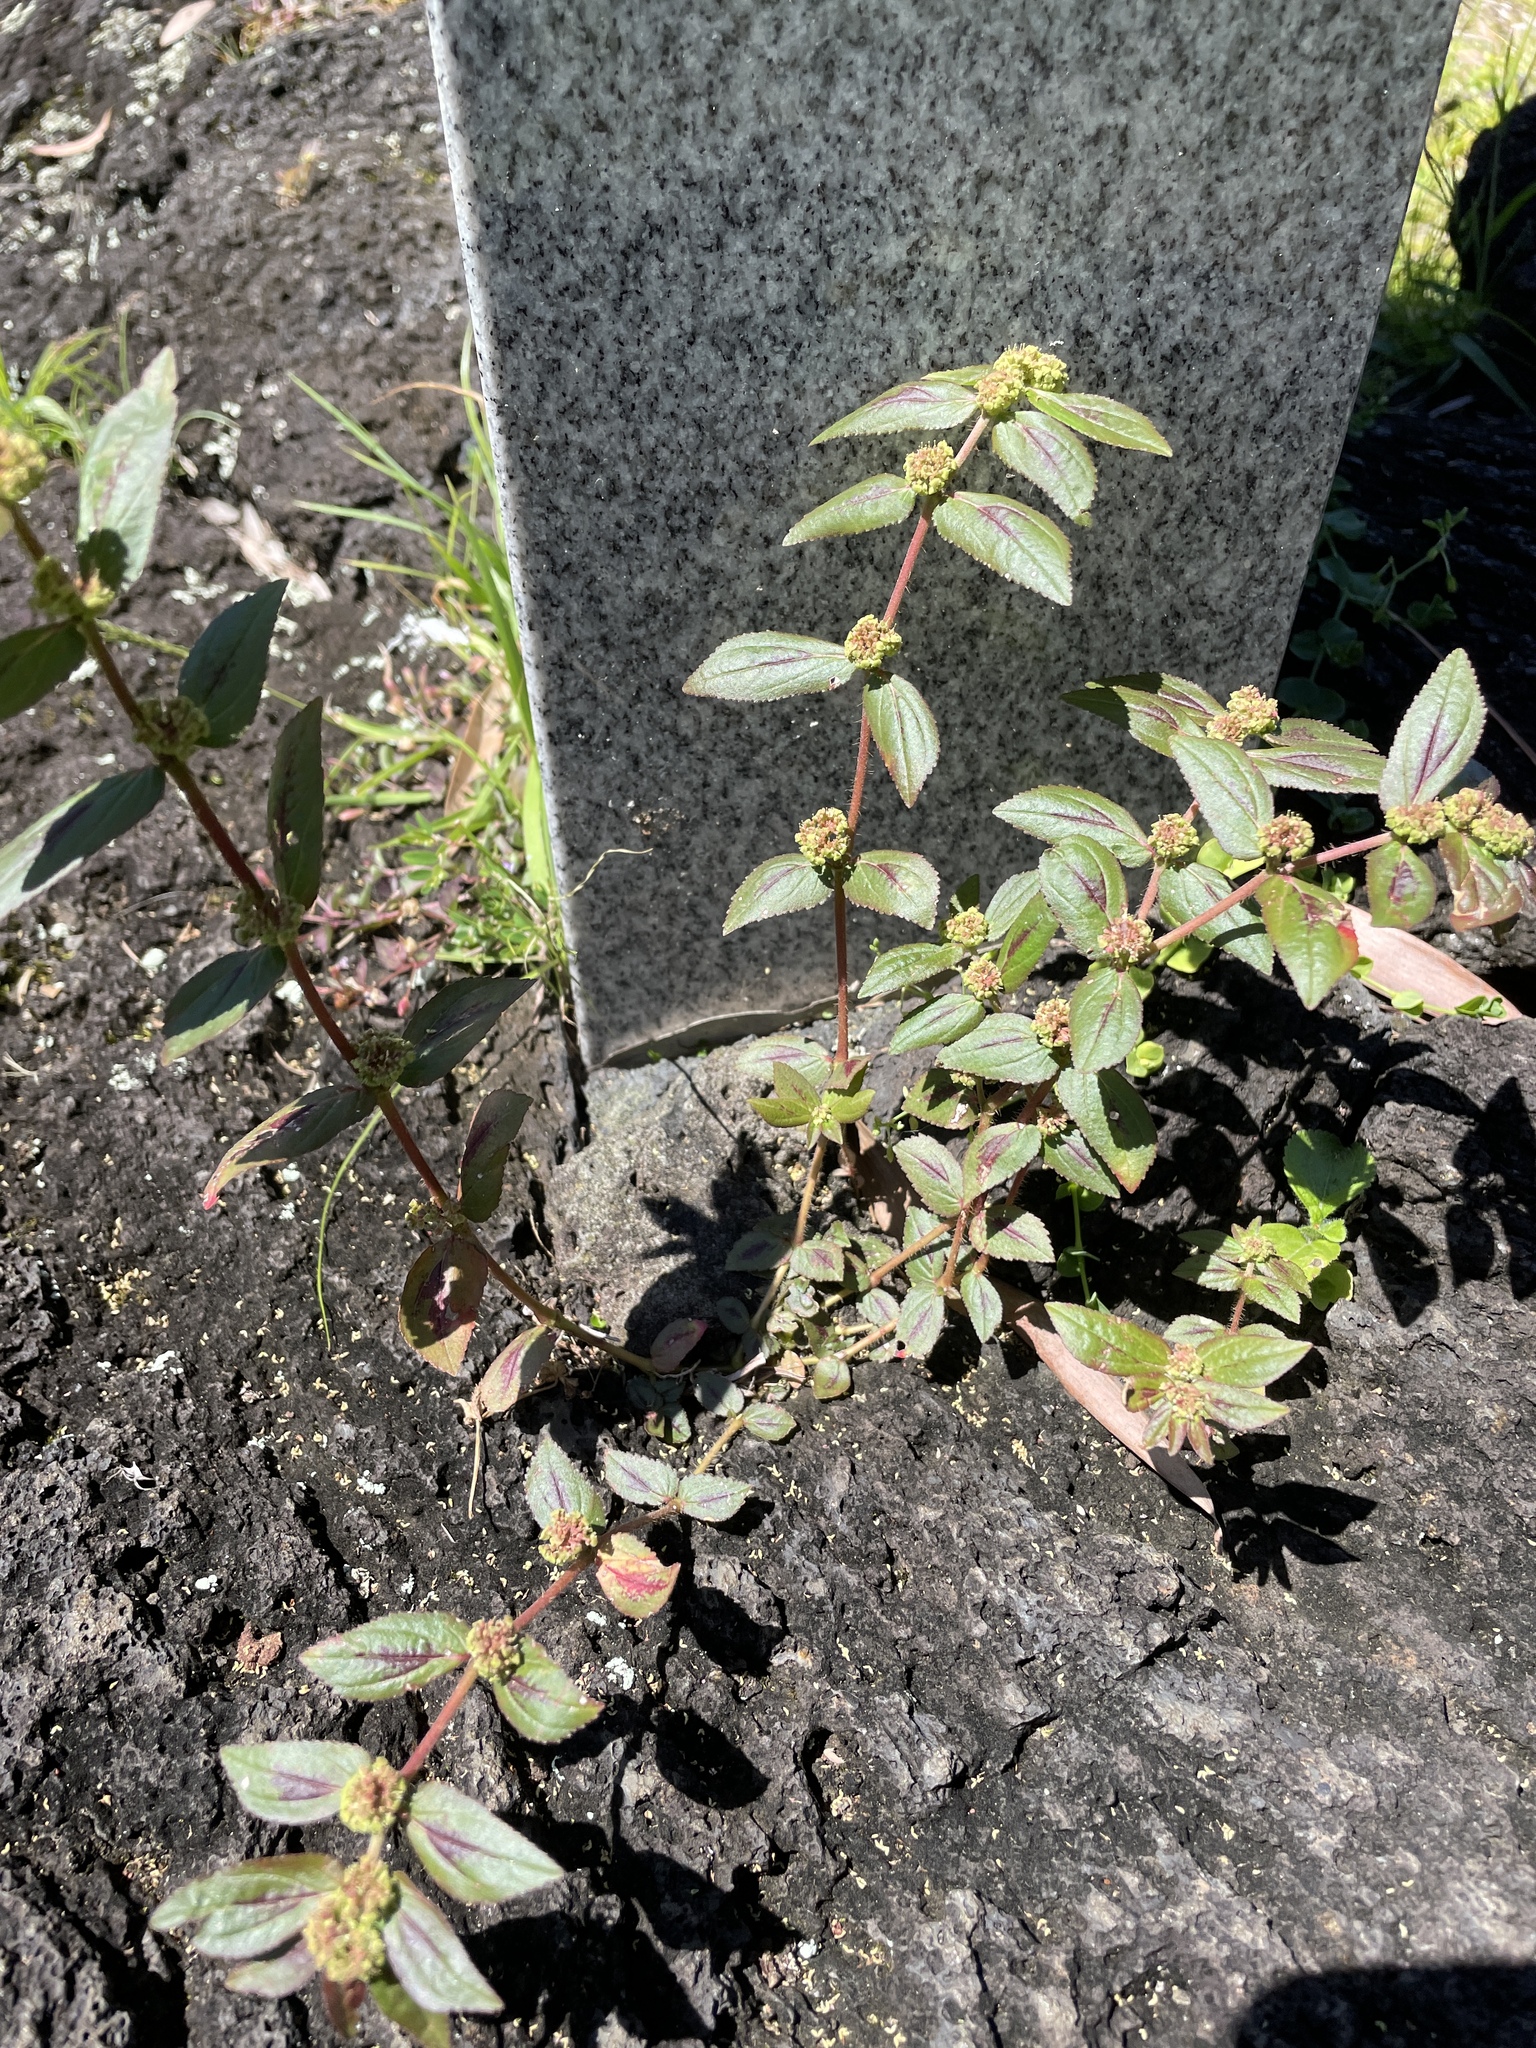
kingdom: Plantae
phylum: Tracheophyta
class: Magnoliopsida
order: Malpighiales
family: Euphorbiaceae
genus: Euphorbia
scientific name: Euphorbia hirta
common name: Pillpod sandmat
